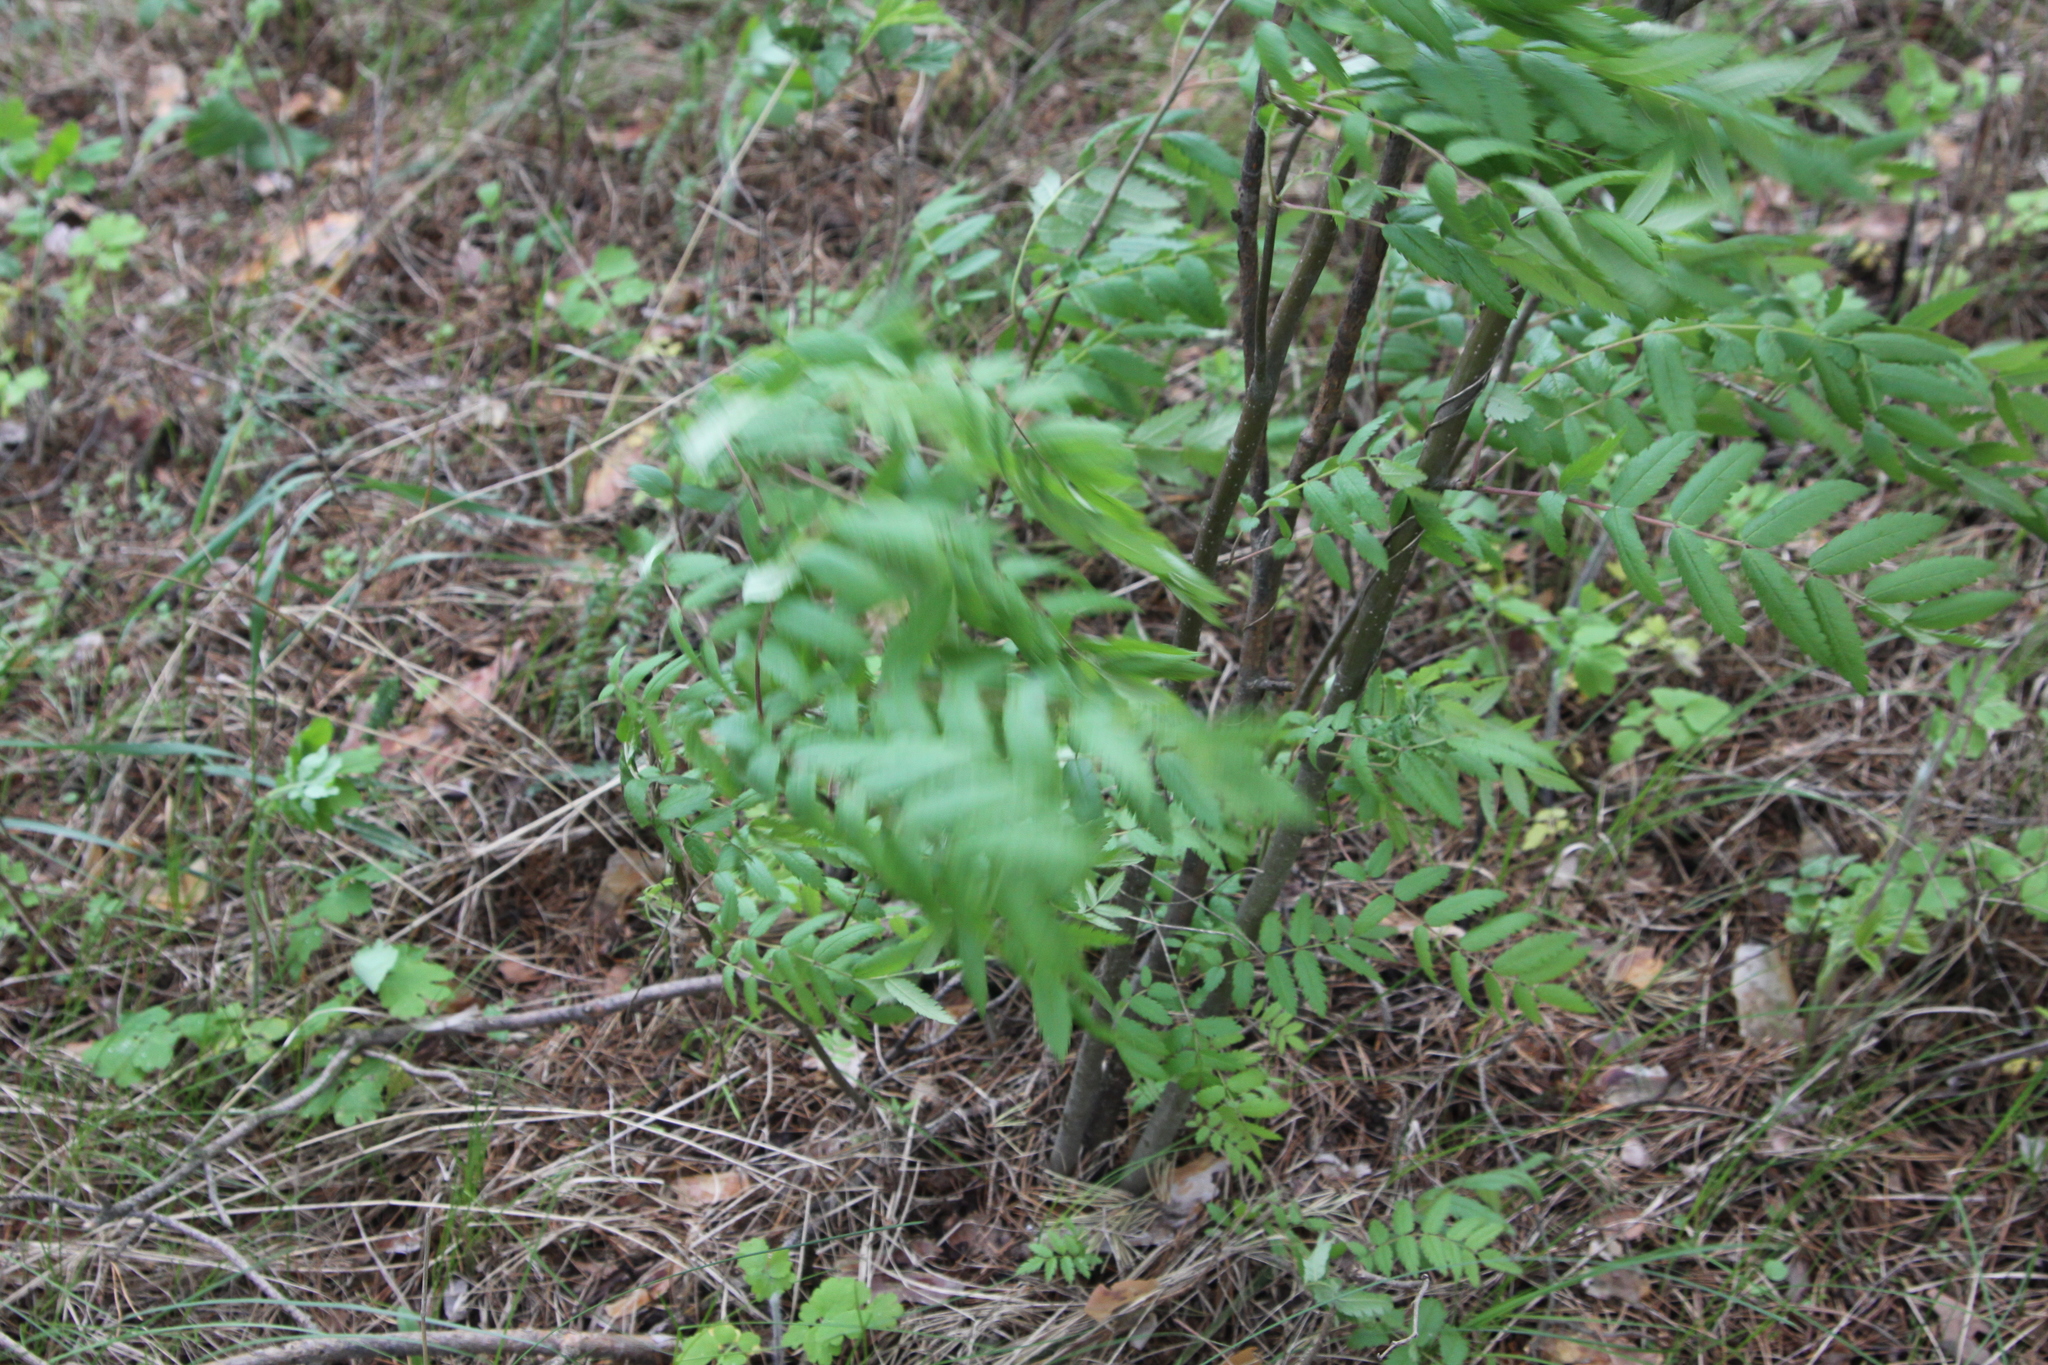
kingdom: Plantae
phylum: Tracheophyta
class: Magnoliopsida
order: Rosales
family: Rosaceae
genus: Sorbus
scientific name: Sorbus aucuparia
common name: Rowan
